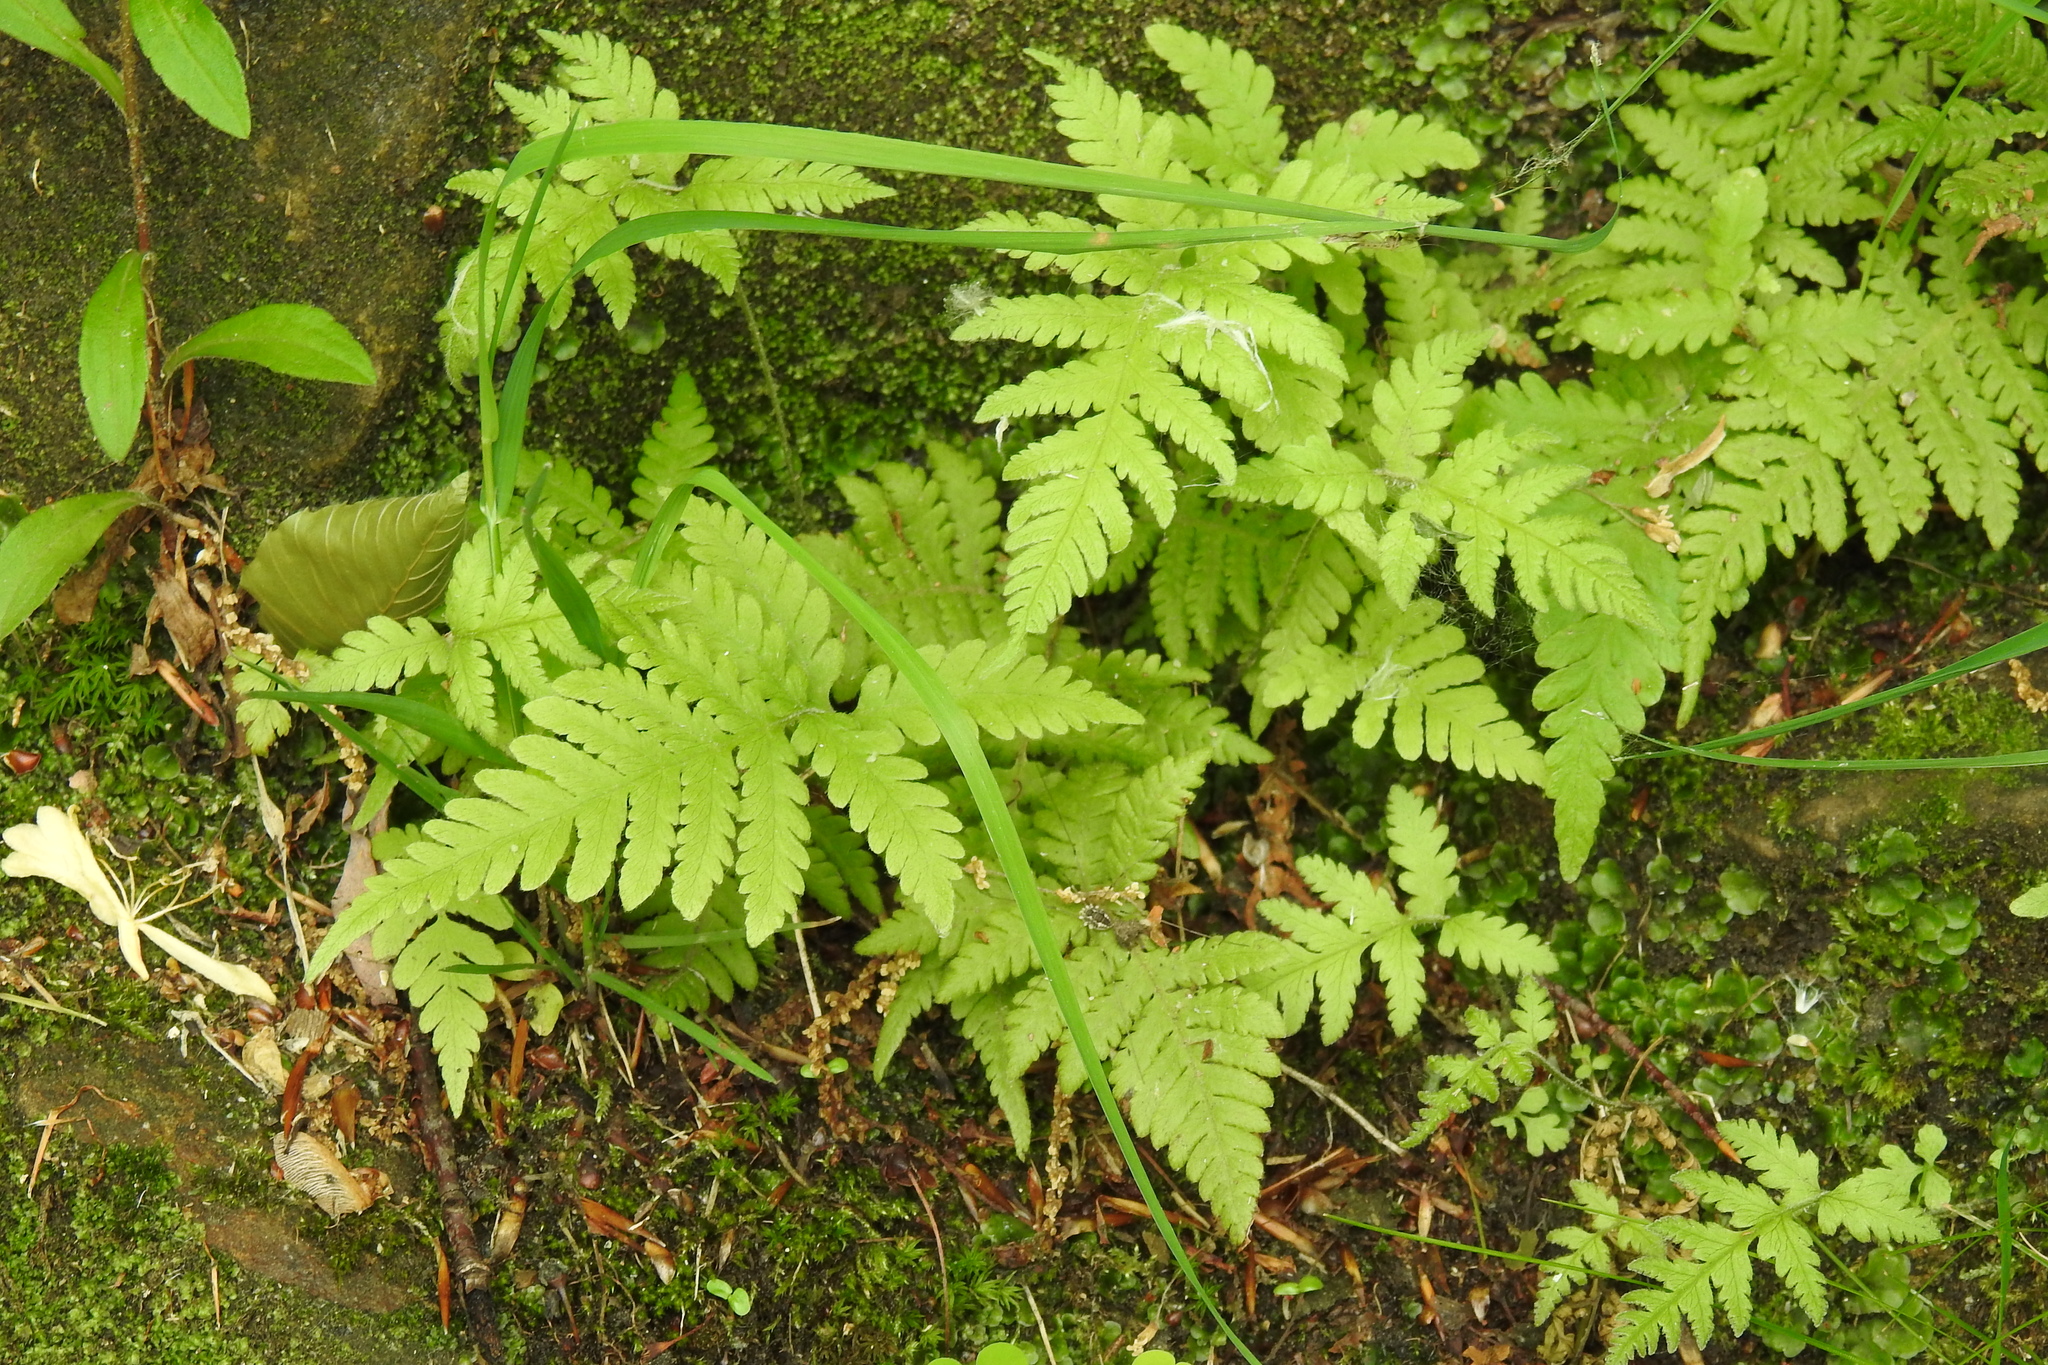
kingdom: Plantae
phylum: Tracheophyta
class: Polypodiopsida
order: Polypodiales
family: Thelypteridaceae
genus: Phegopteris
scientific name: Phegopteris connectilis
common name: Beech fern
